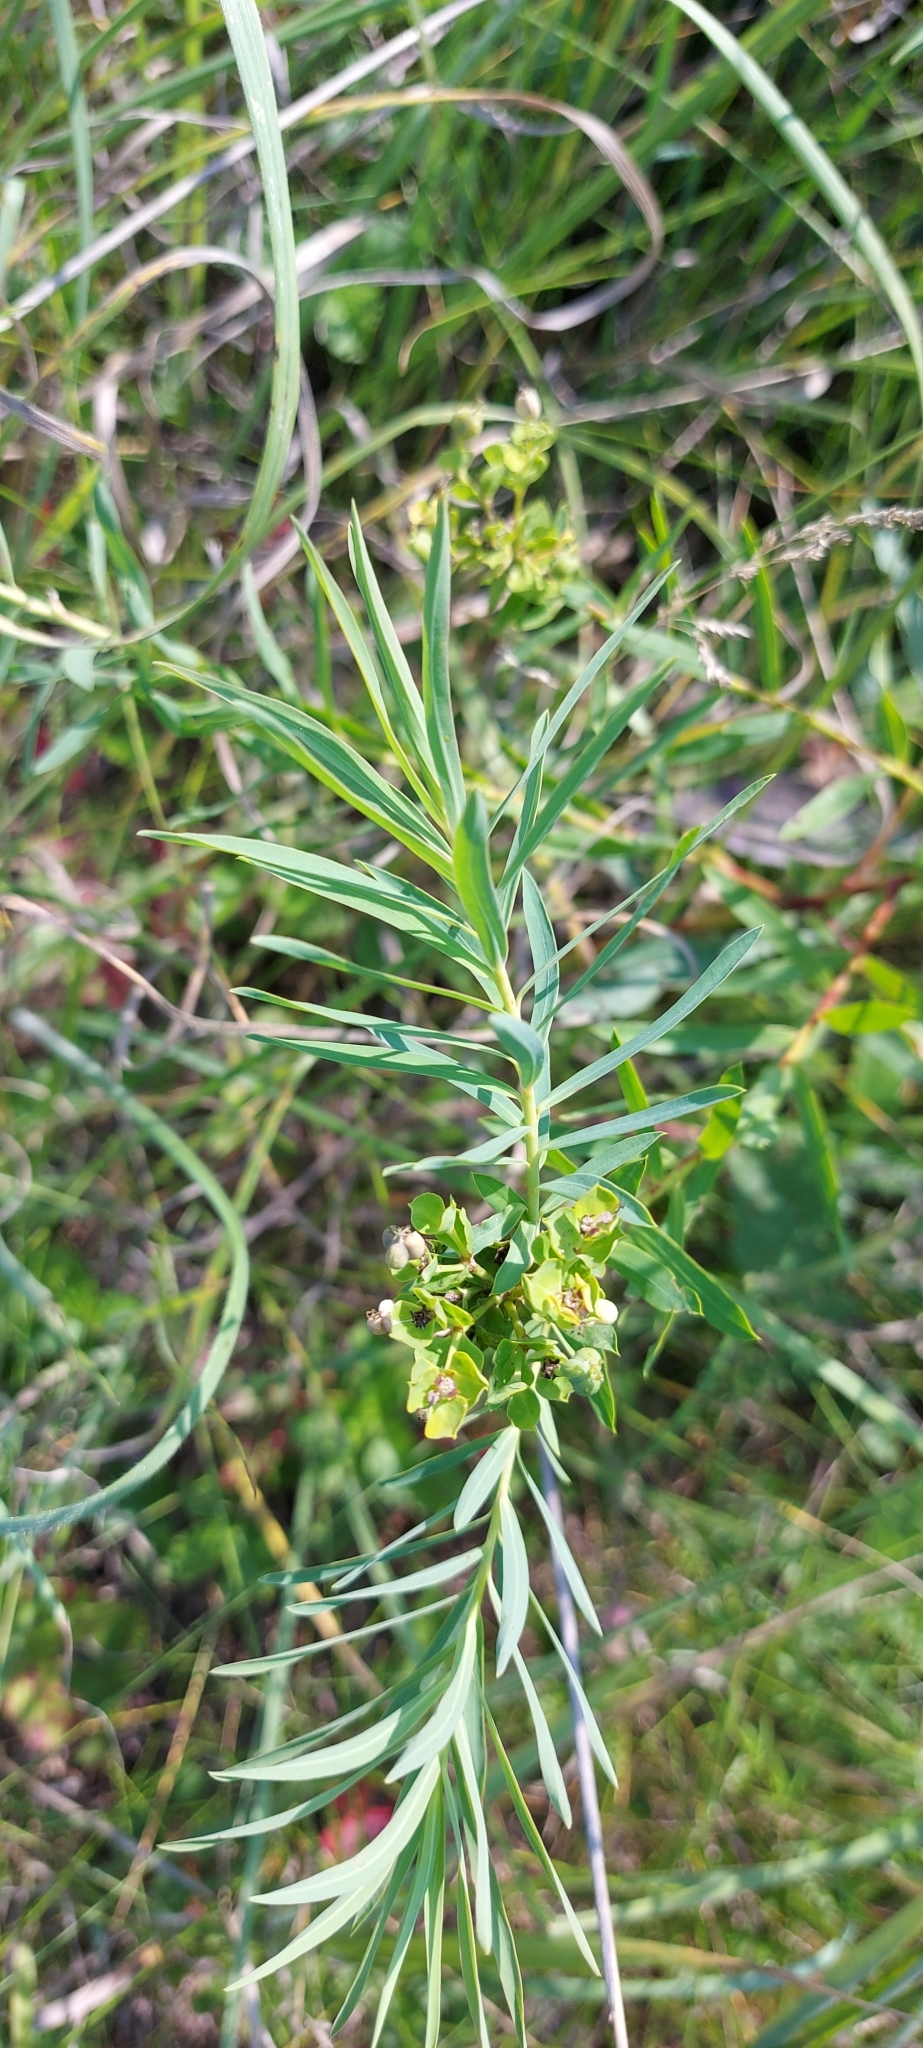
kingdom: Plantae
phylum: Tracheophyta
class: Magnoliopsida
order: Malpighiales
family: Euphorbiaceae
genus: Euphorbia
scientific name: Euphorbia virgata
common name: Leafy spurge
